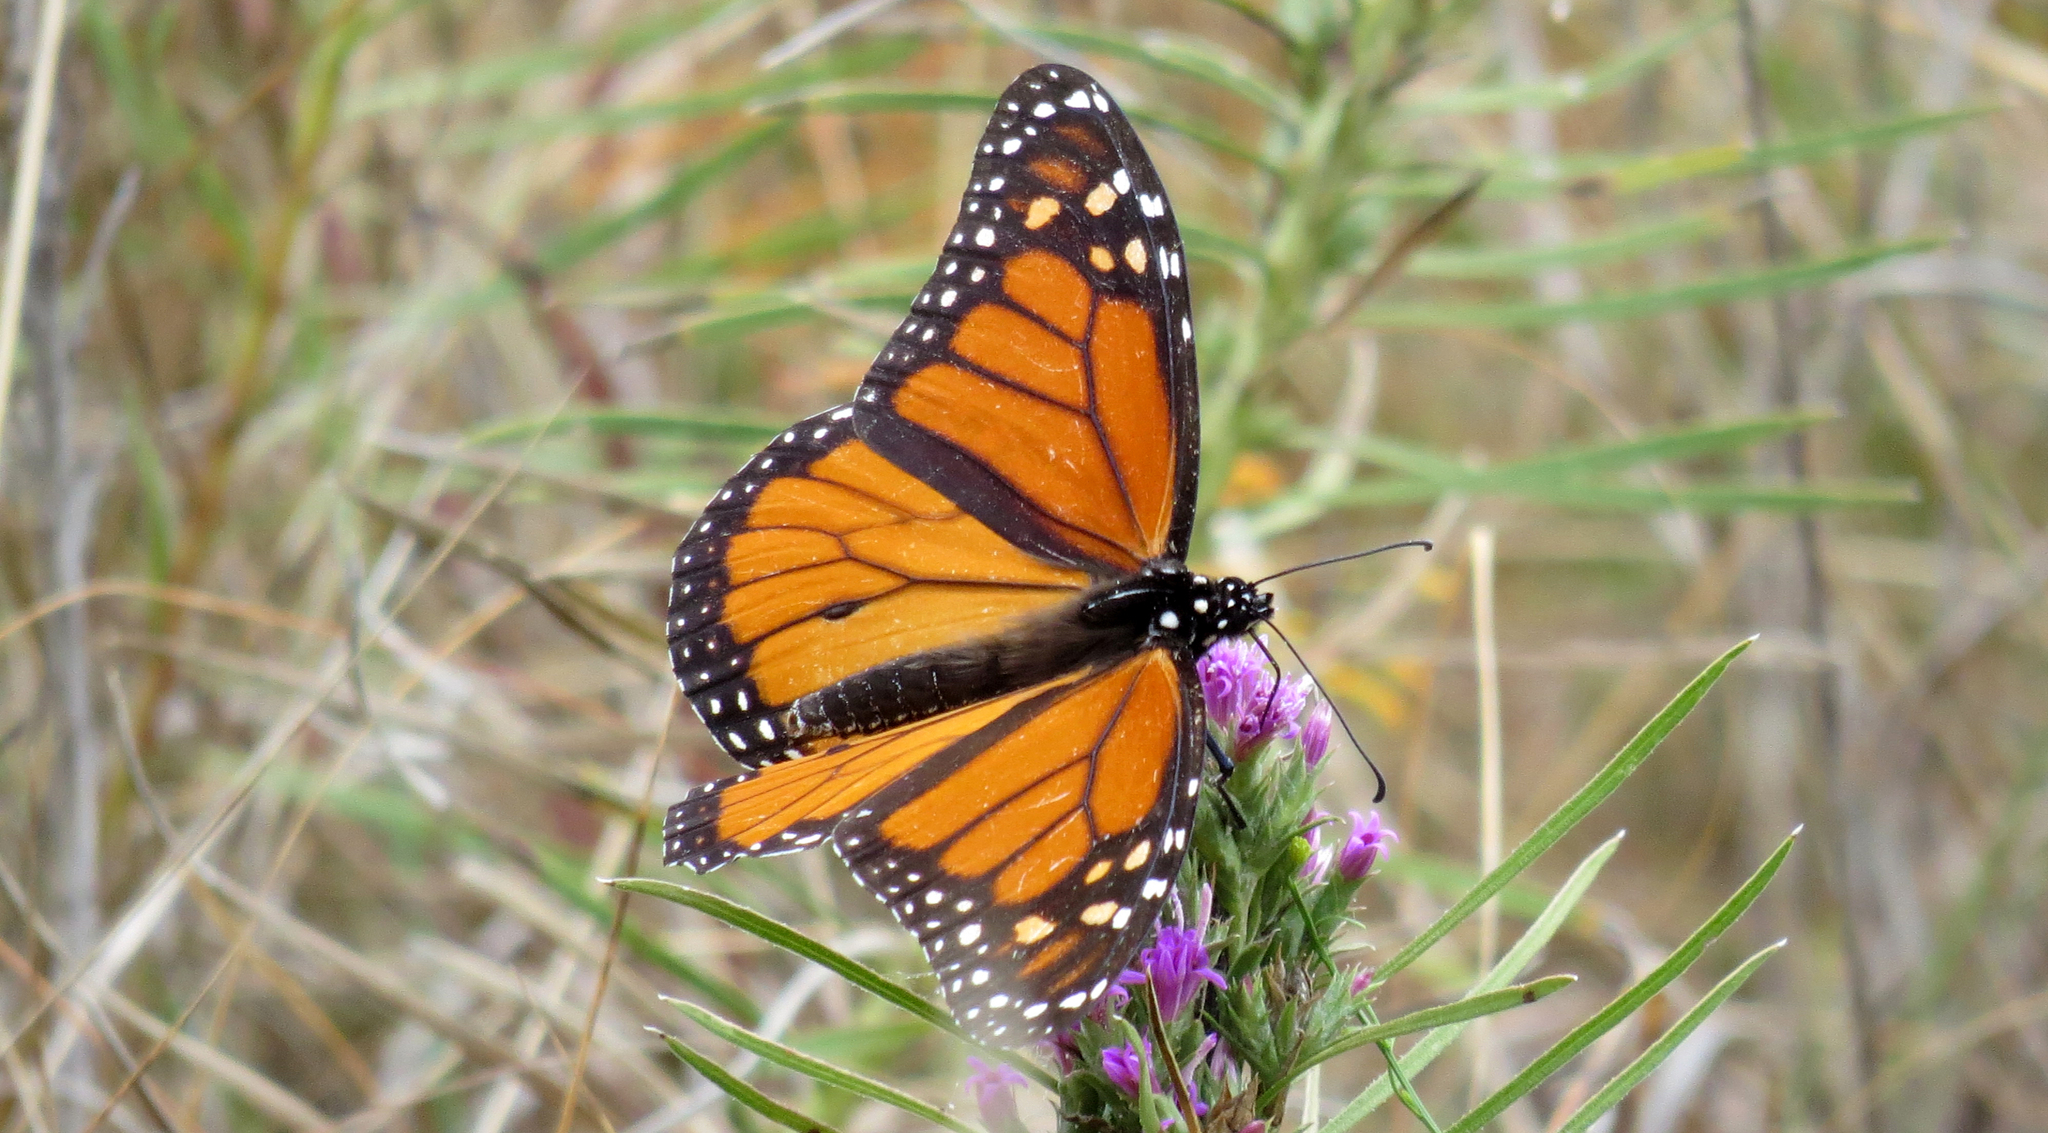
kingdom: Animalia
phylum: Arthropoda
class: Insecta
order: Lepidoptera
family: Nymphalidae
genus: Danaus
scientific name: Danaus plexippus
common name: Monarch
